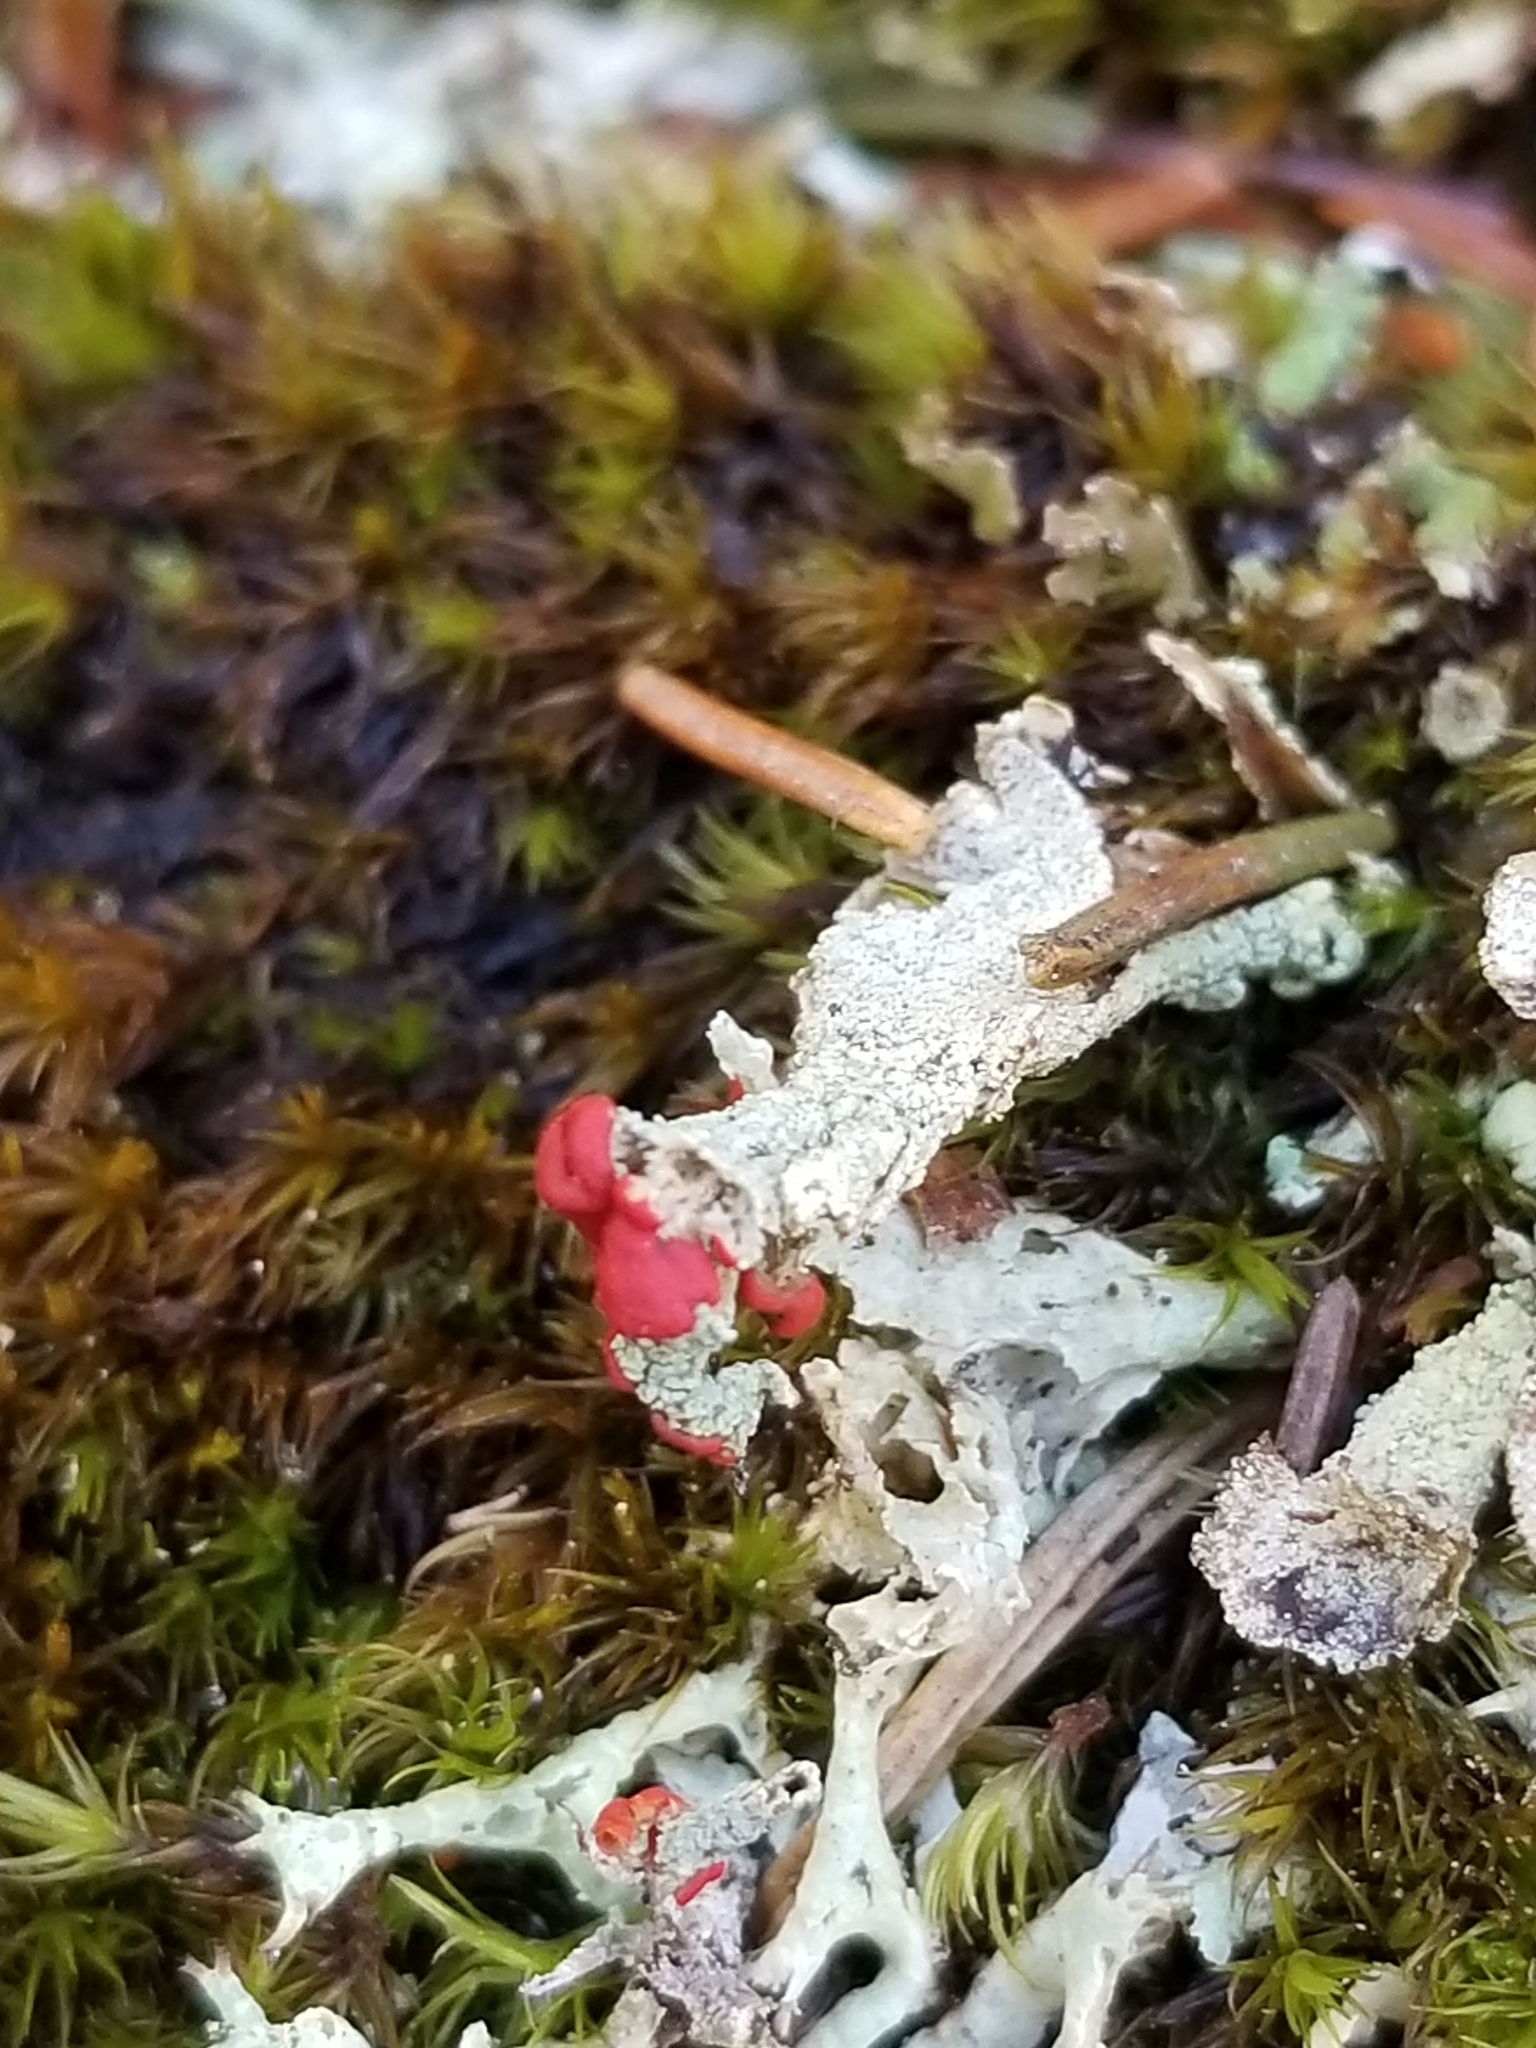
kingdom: Fungi
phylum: Ascomycota
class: Lecanoromycetes
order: Lecanorales
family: Cladoniaceae
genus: Cladonia
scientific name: Cladonia cristatella
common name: British soldier lichen
